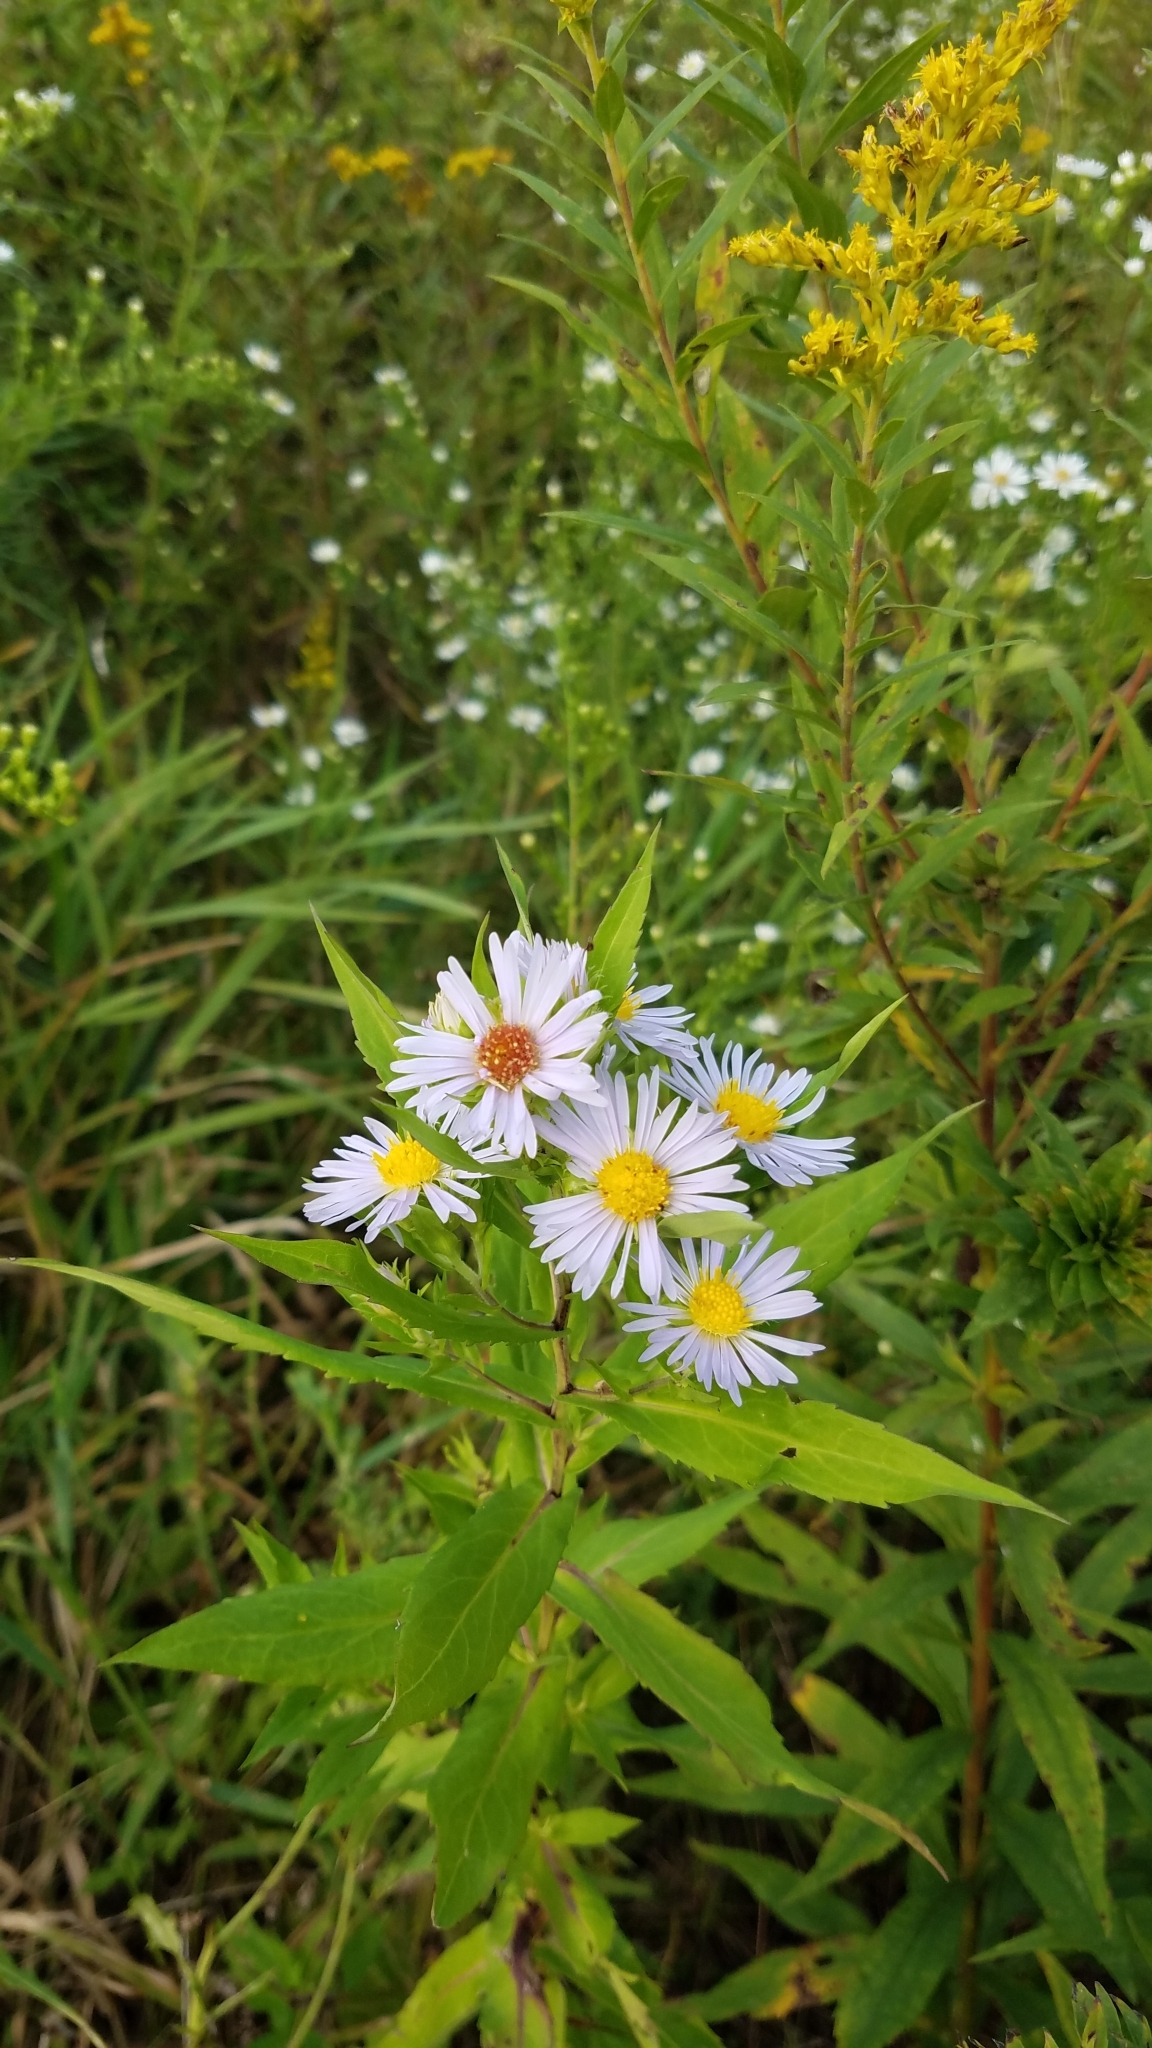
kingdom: Plantae
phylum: Tracheophyta
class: Magnoliopsida
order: Asterales
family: Asteraceae
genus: Symphyotrichum
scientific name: Symphyotrichum firmum
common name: Shining aster
